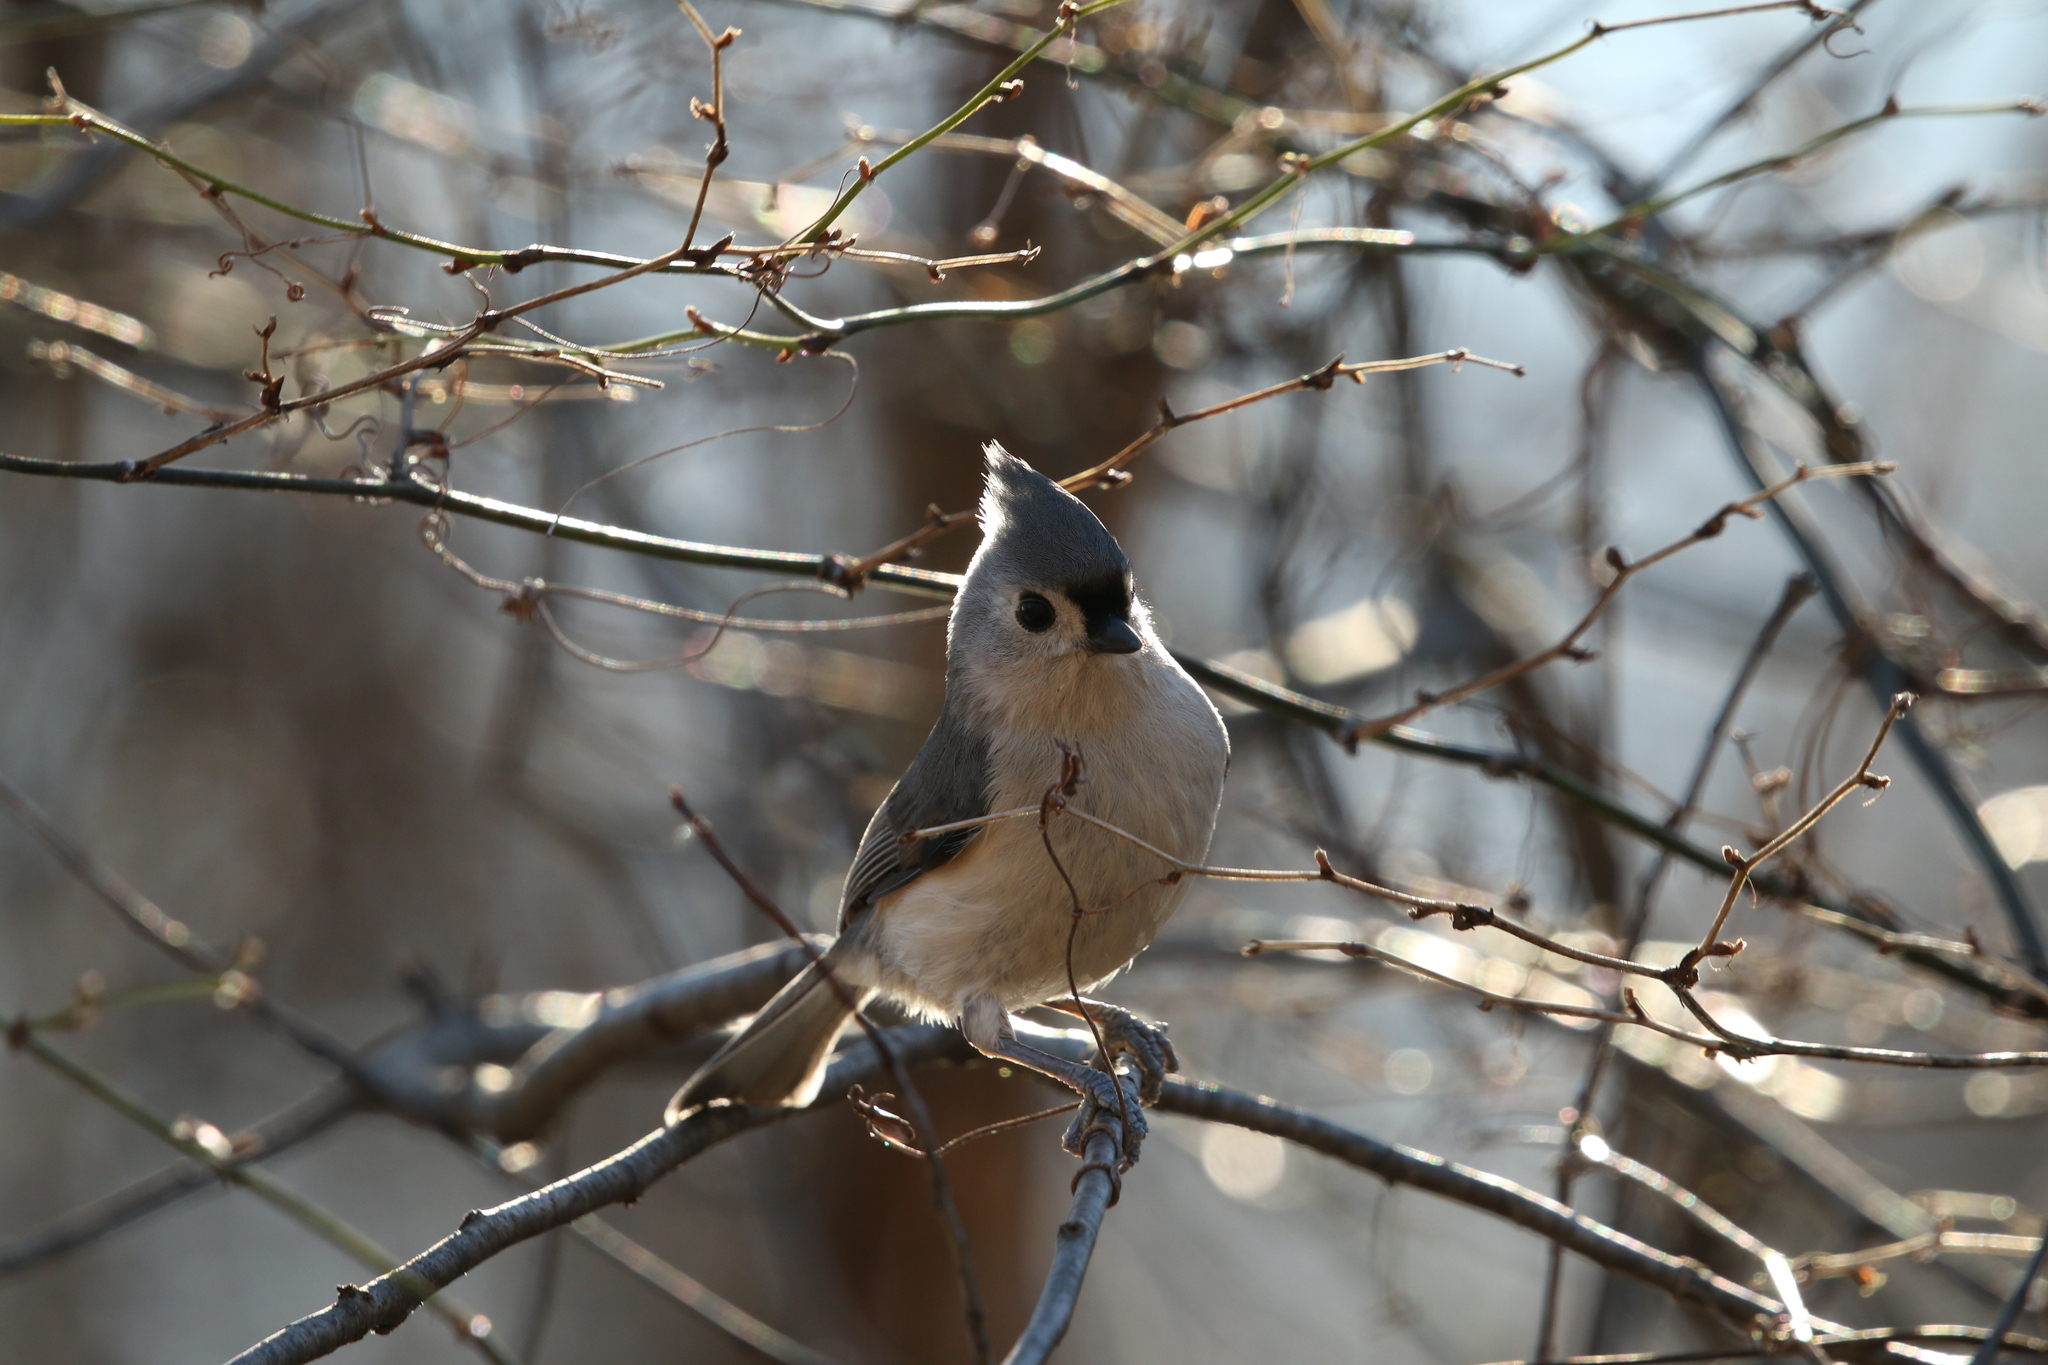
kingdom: Animalia
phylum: Chordata
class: Aves
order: Passeriformes
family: Paridae
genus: Baeolophus
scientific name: Baeolophus bicolor
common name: Tufted titmouse
